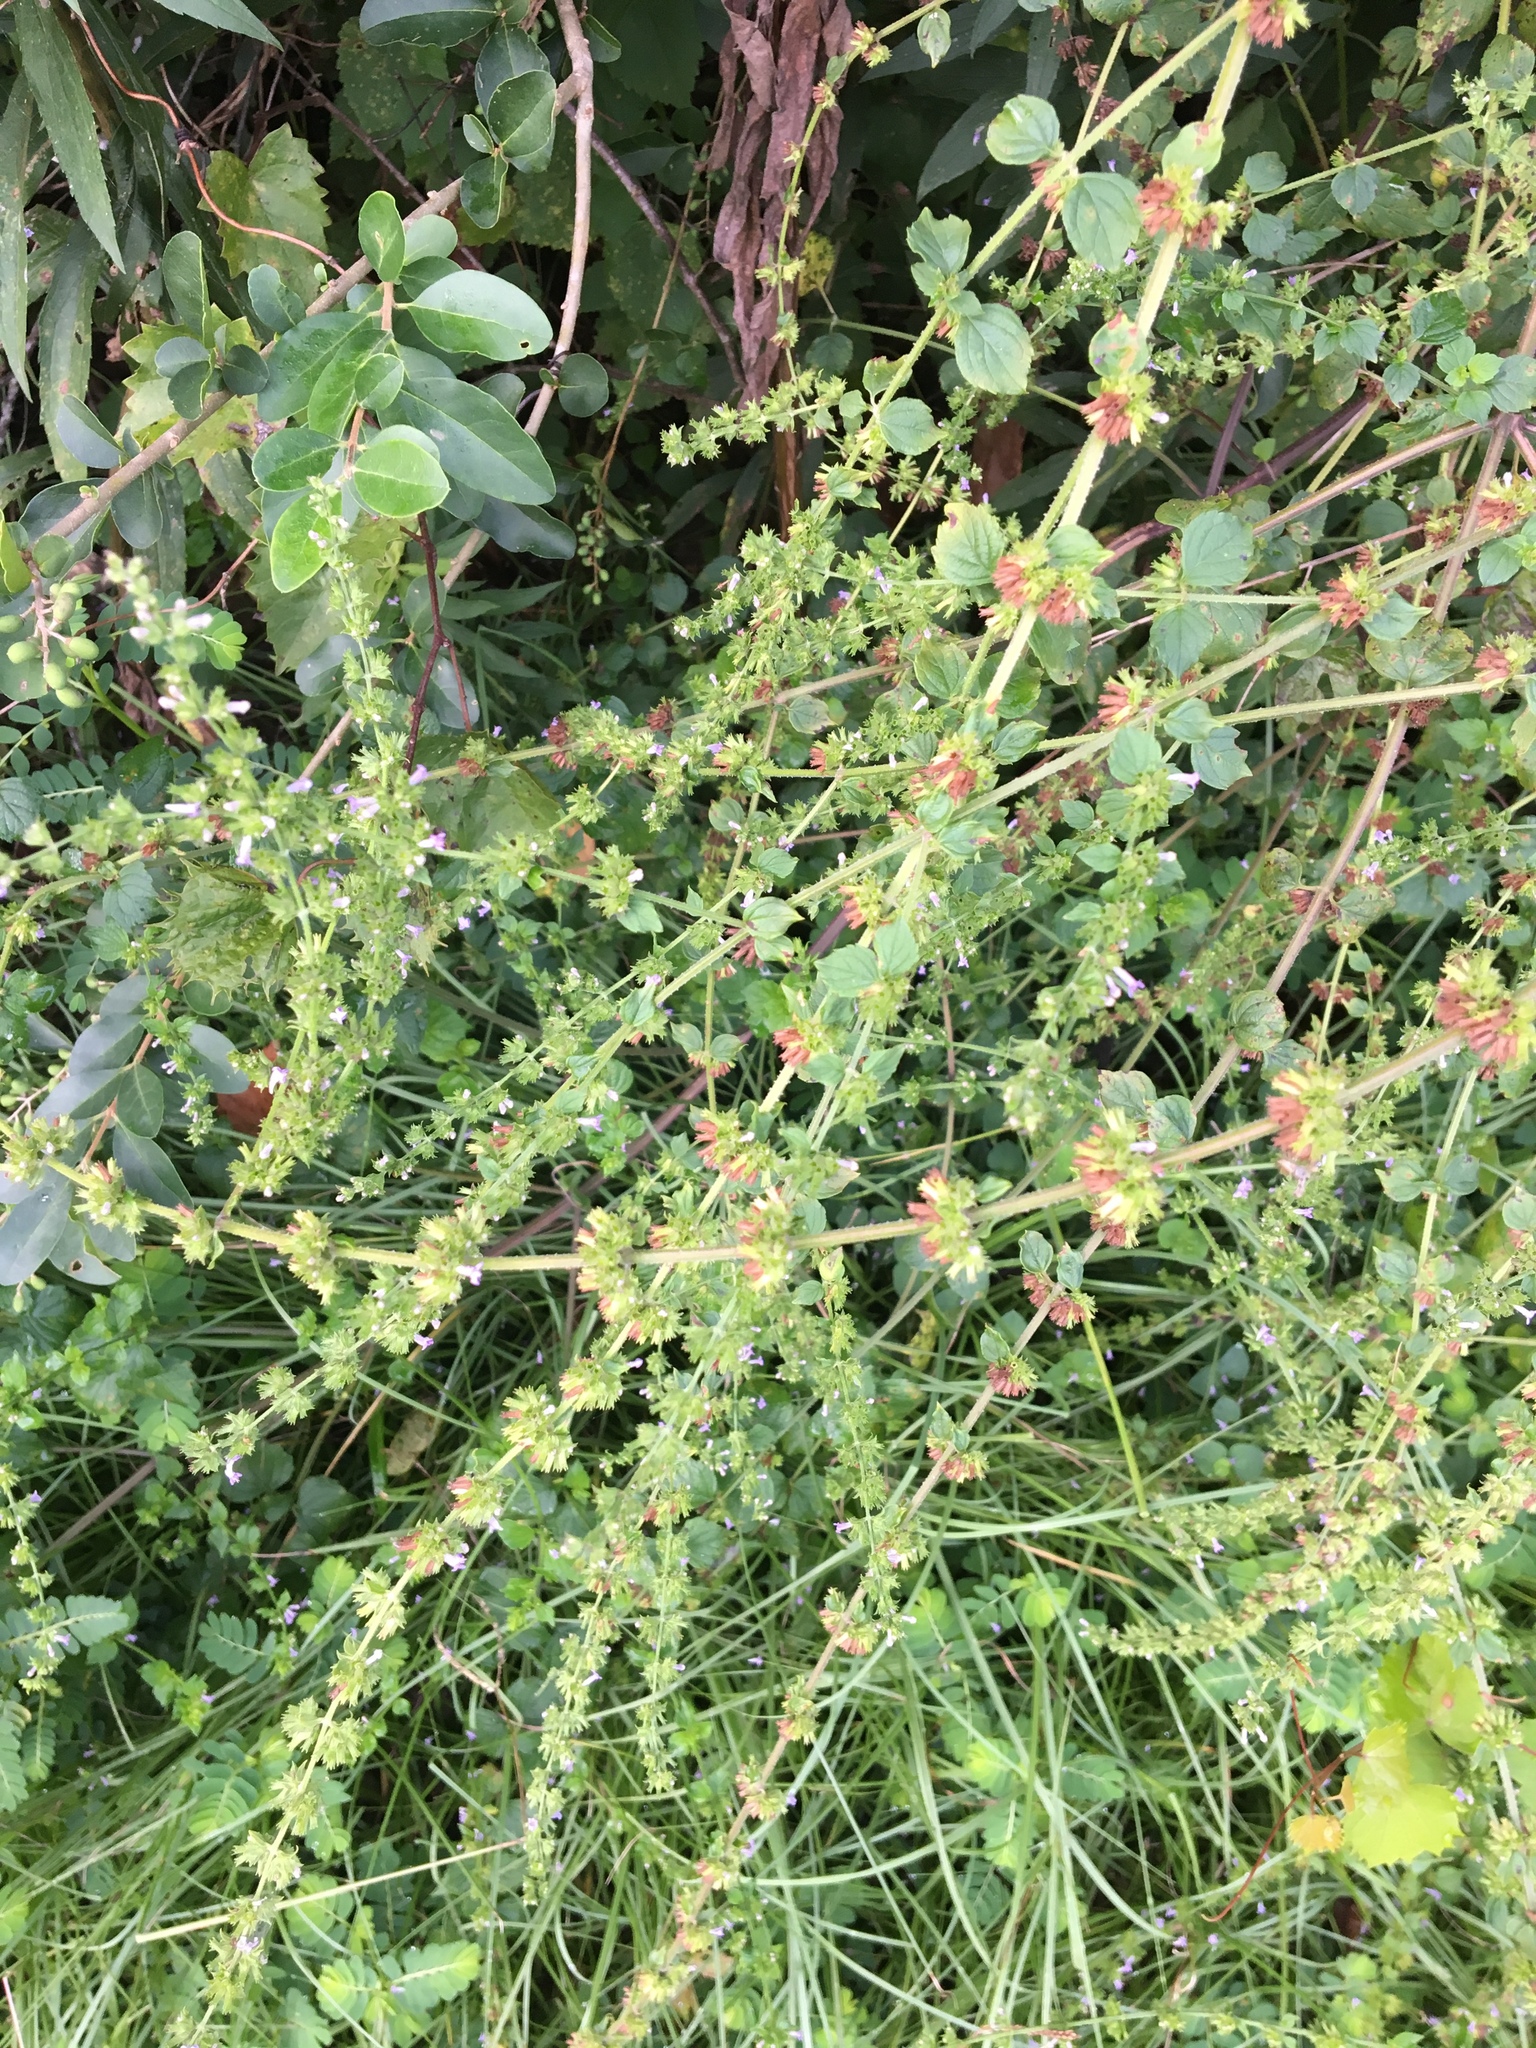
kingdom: Plantae
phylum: Tracheophyta
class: Magnoliopsida
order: Lamiales
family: Lamiaceae
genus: Cantinoa
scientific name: Cantinoa mutabilis
